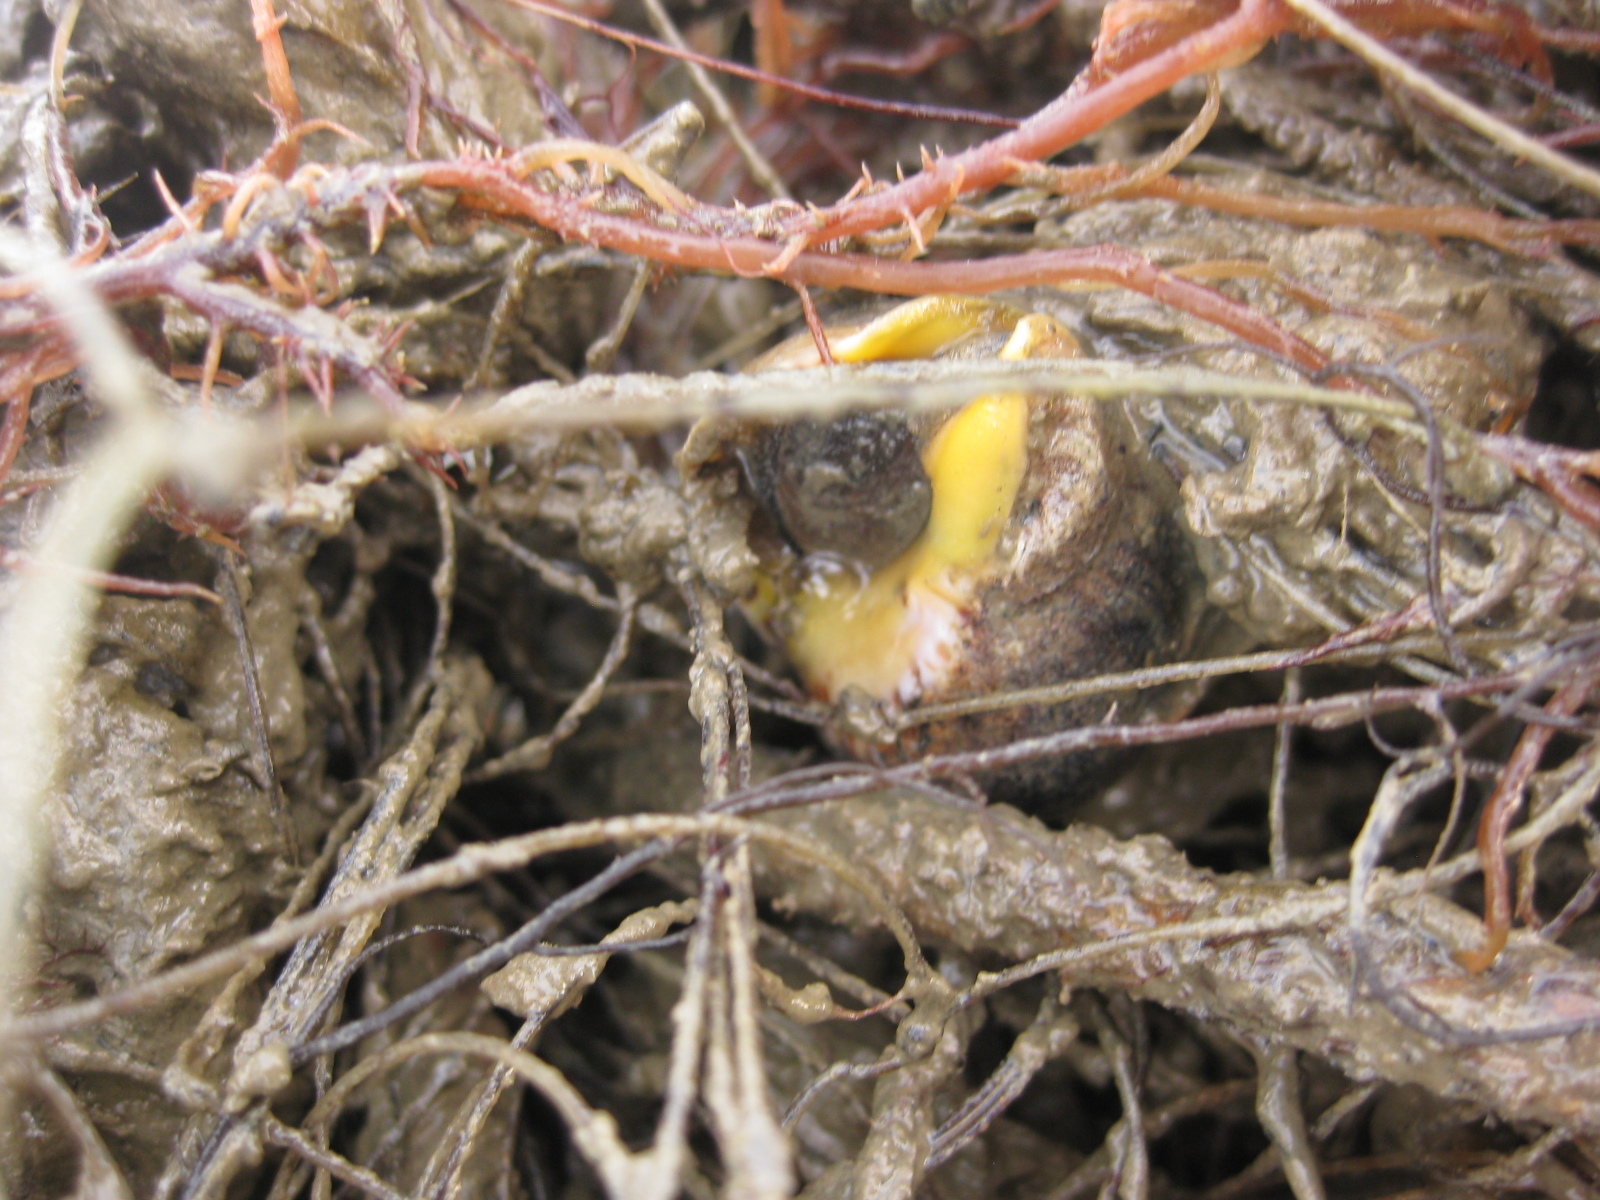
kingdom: Animalia
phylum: Mollusca
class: Gastropoda
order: Neogastropoda
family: Cominellidae
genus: Cominella
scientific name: Cominella adspersa
